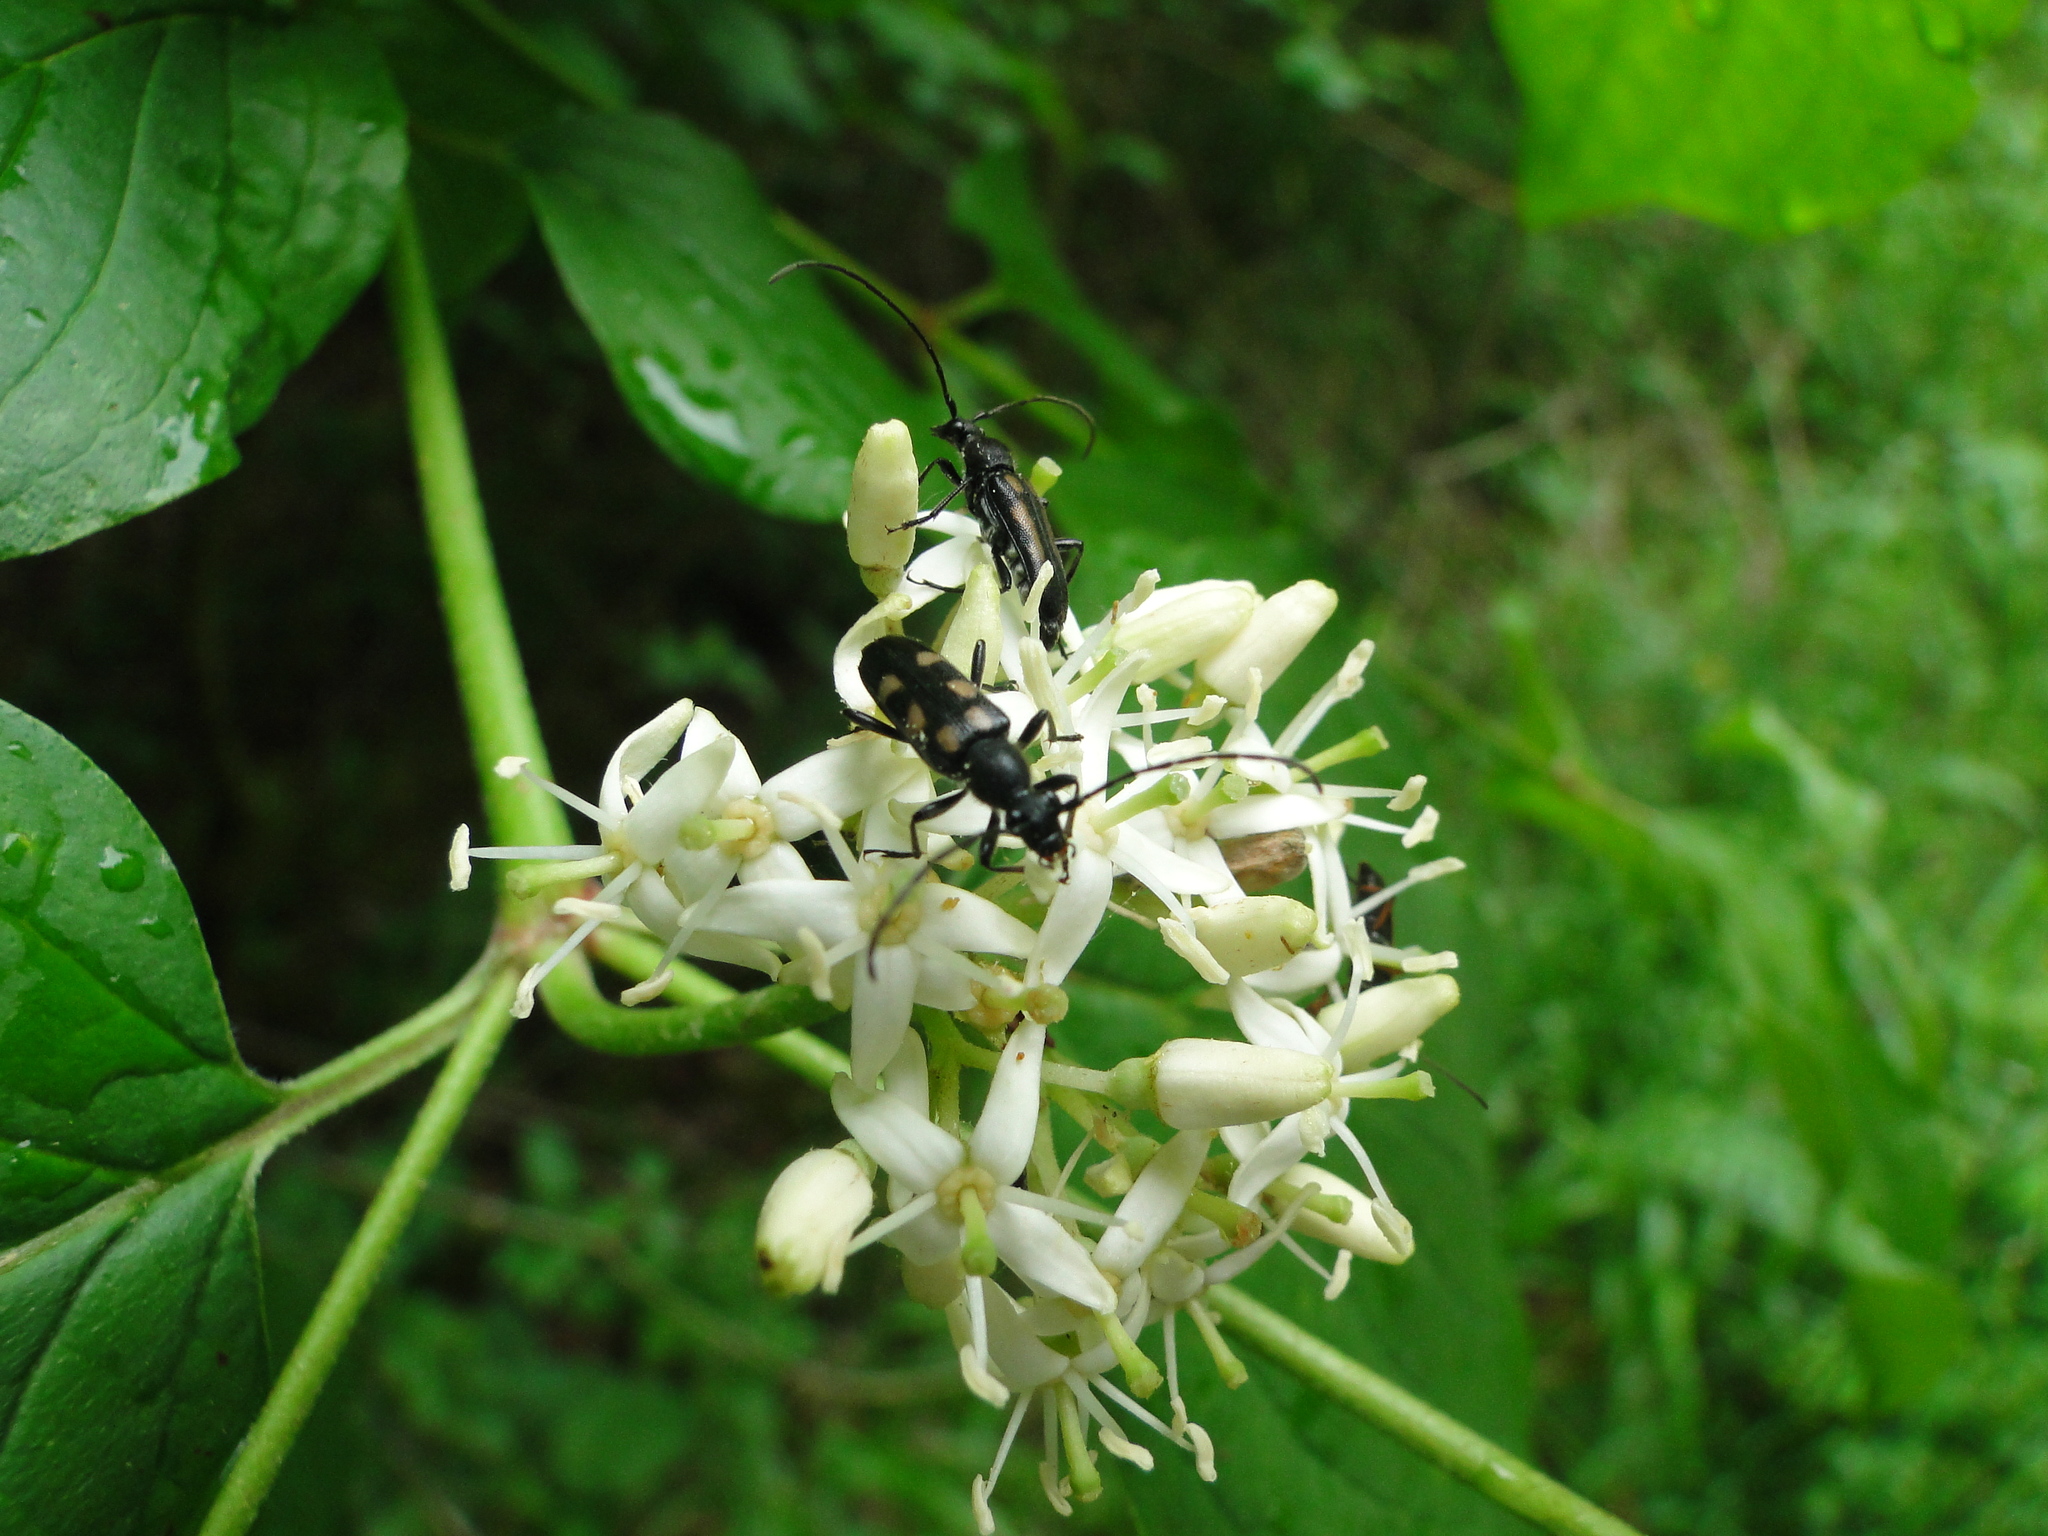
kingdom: Animalia
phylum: Arthropoda
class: Insecta
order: Coleoptera
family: Cerambycidae
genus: Anoplodera
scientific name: Anoplodera sexguttata
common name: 6 spotted longhorn
